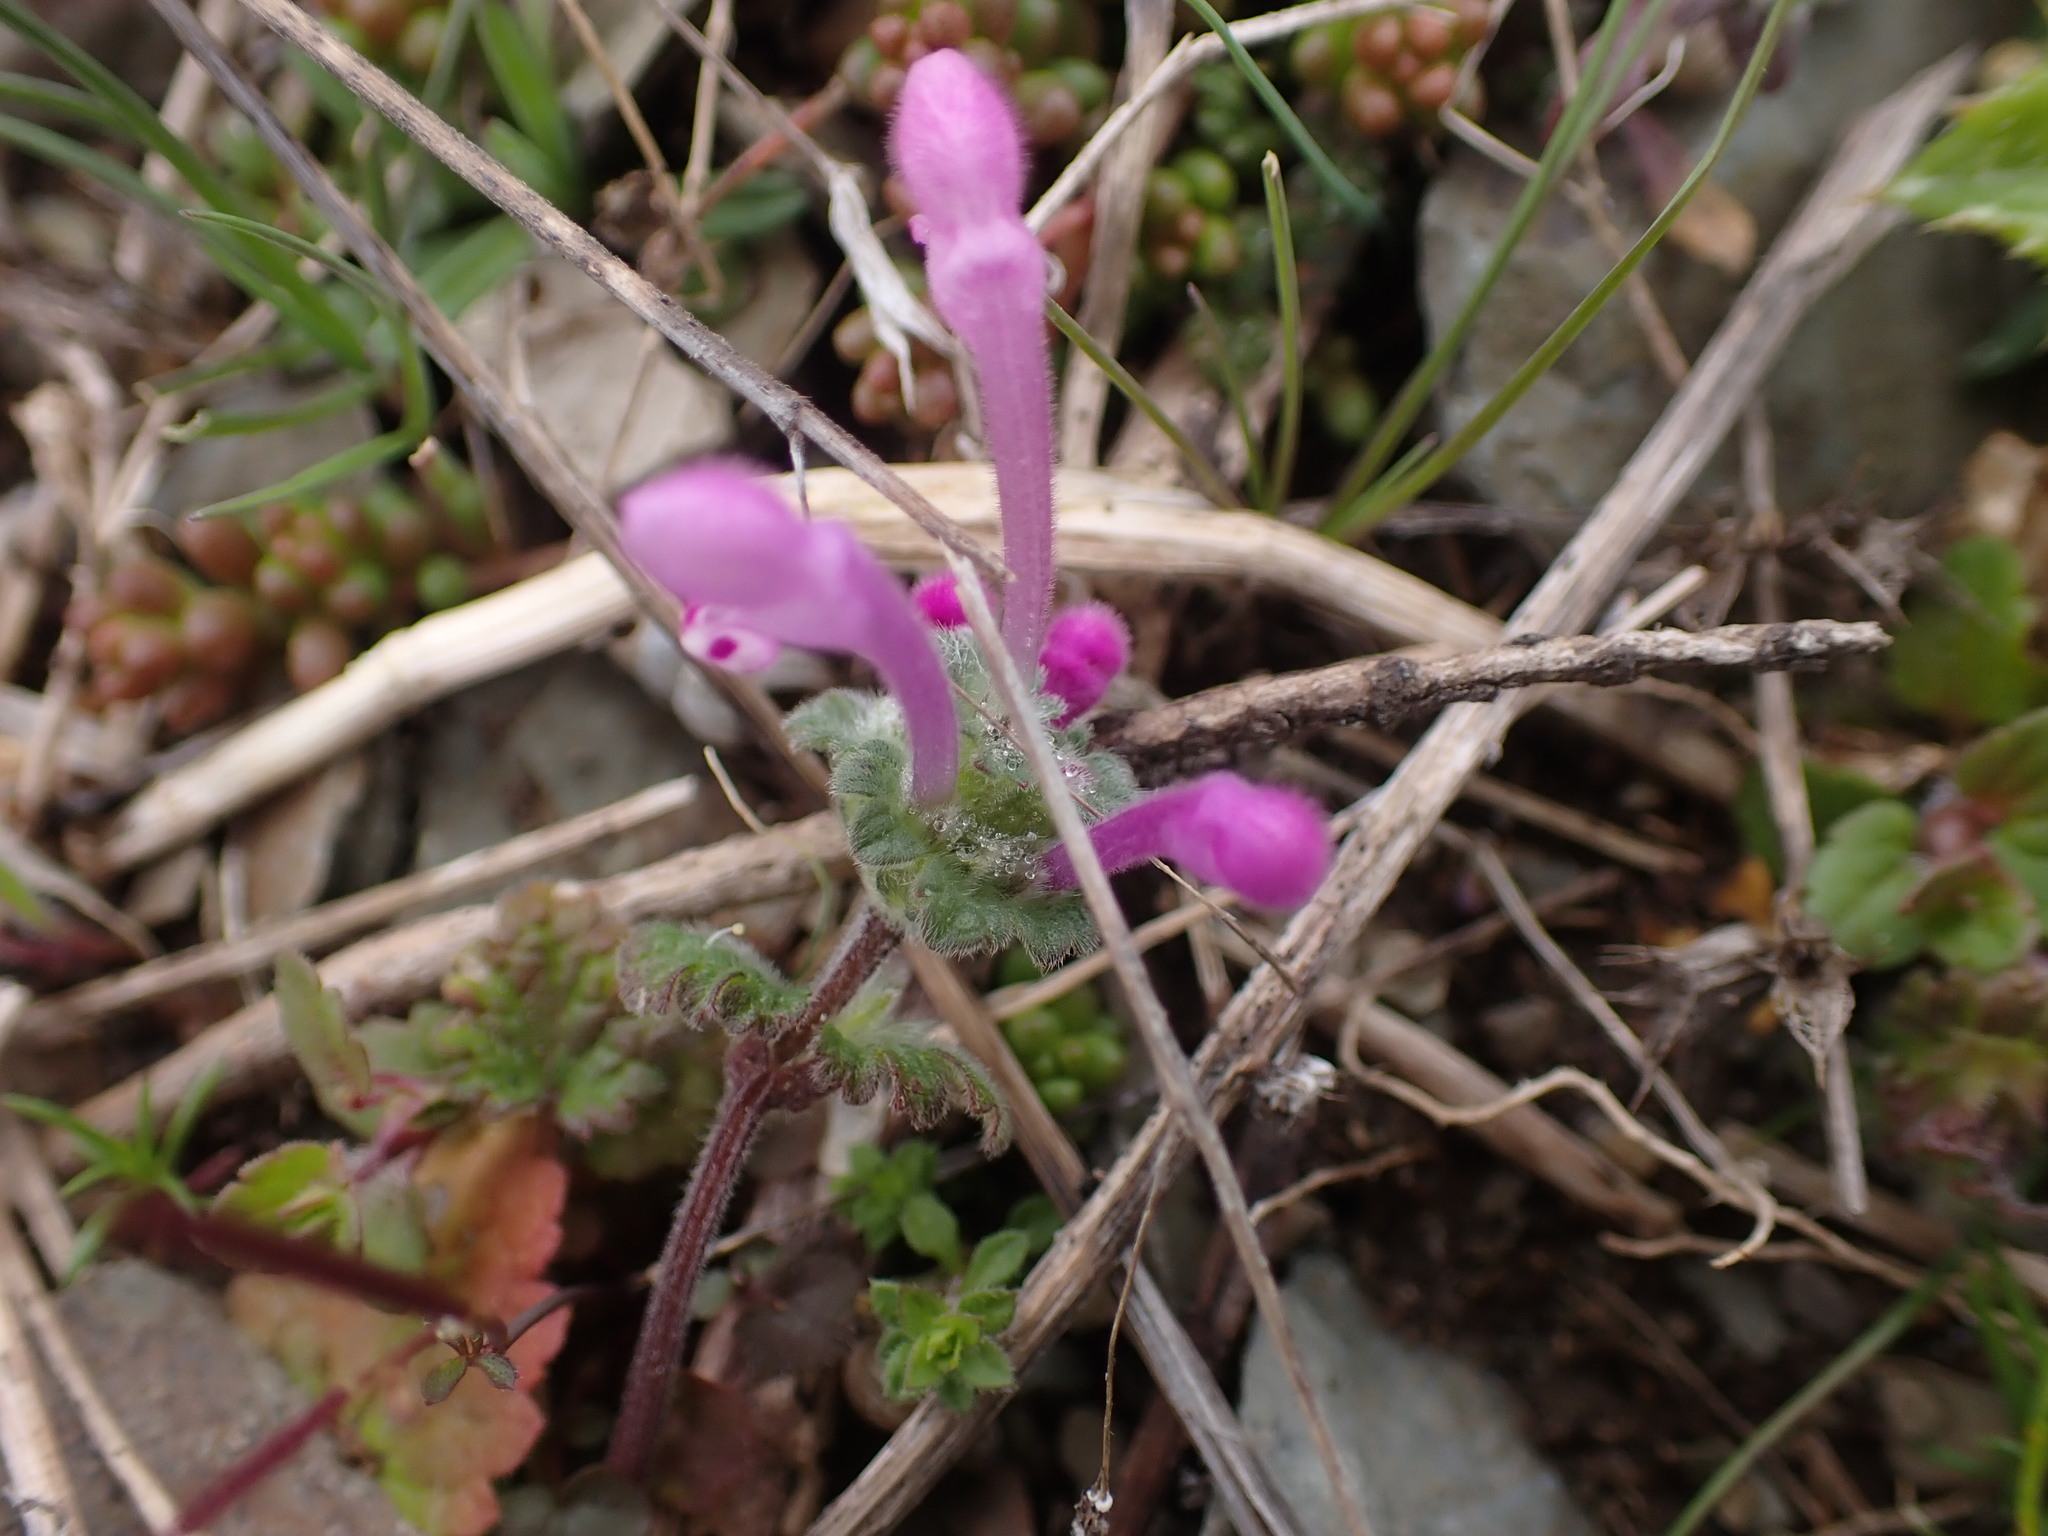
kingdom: Plantae
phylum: Tracheophyta
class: Magnoliopsida
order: Lamiales
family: Lamiaceae
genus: Lamium
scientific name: Lamium amplexicaule
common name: Henbit dead-nettle
